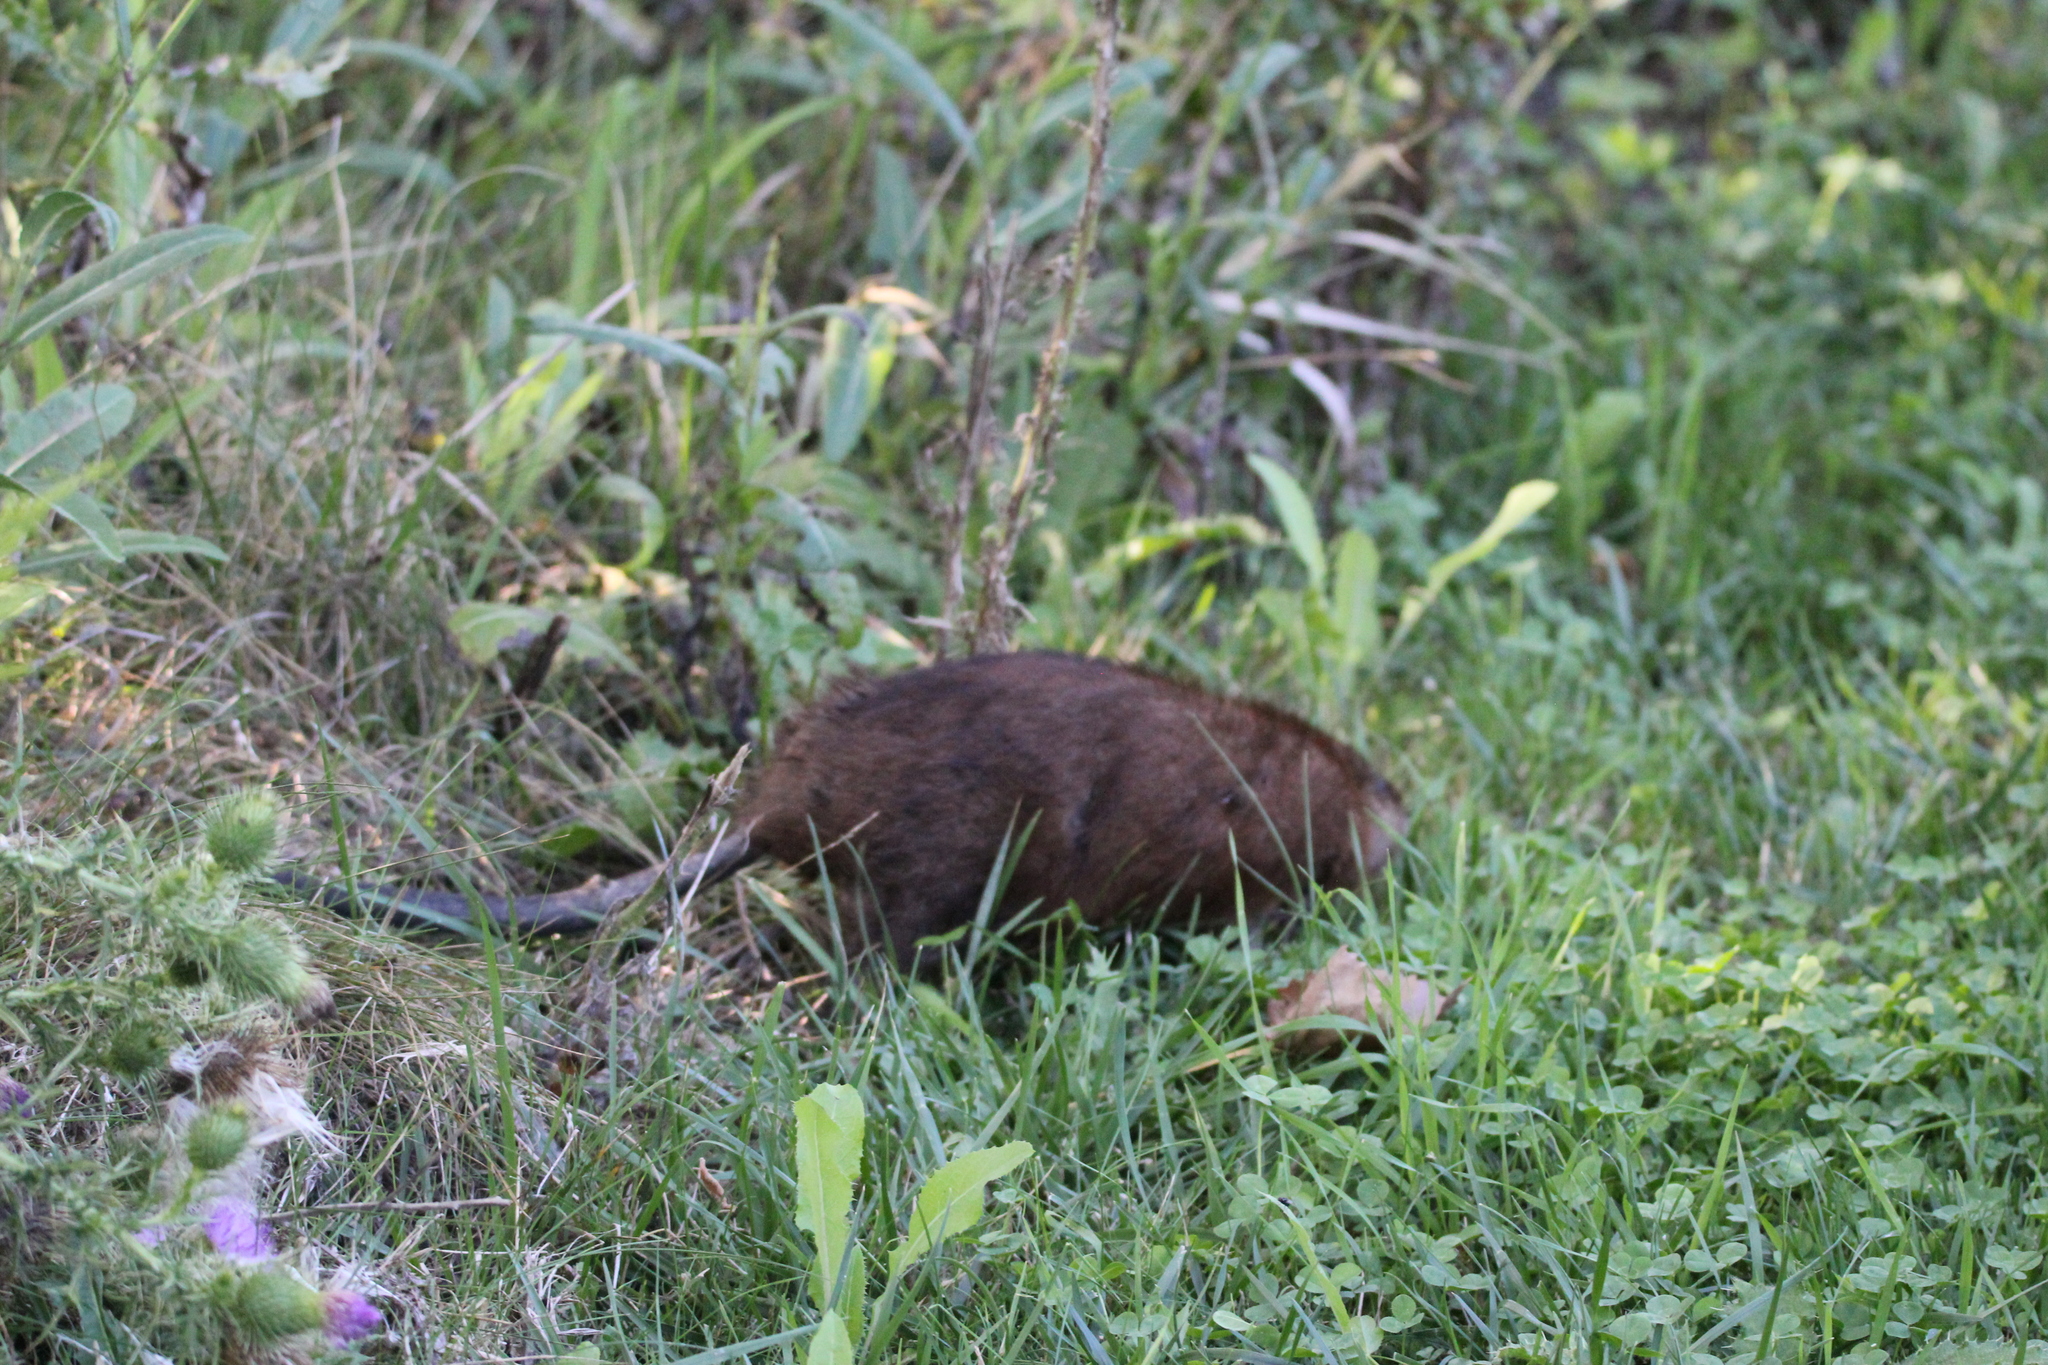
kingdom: Animalia
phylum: Chordata
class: Mammalia
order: Rodentia
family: Cricetidae
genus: Ondatra
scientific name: Ondatra zibethicus
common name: Muskrat
